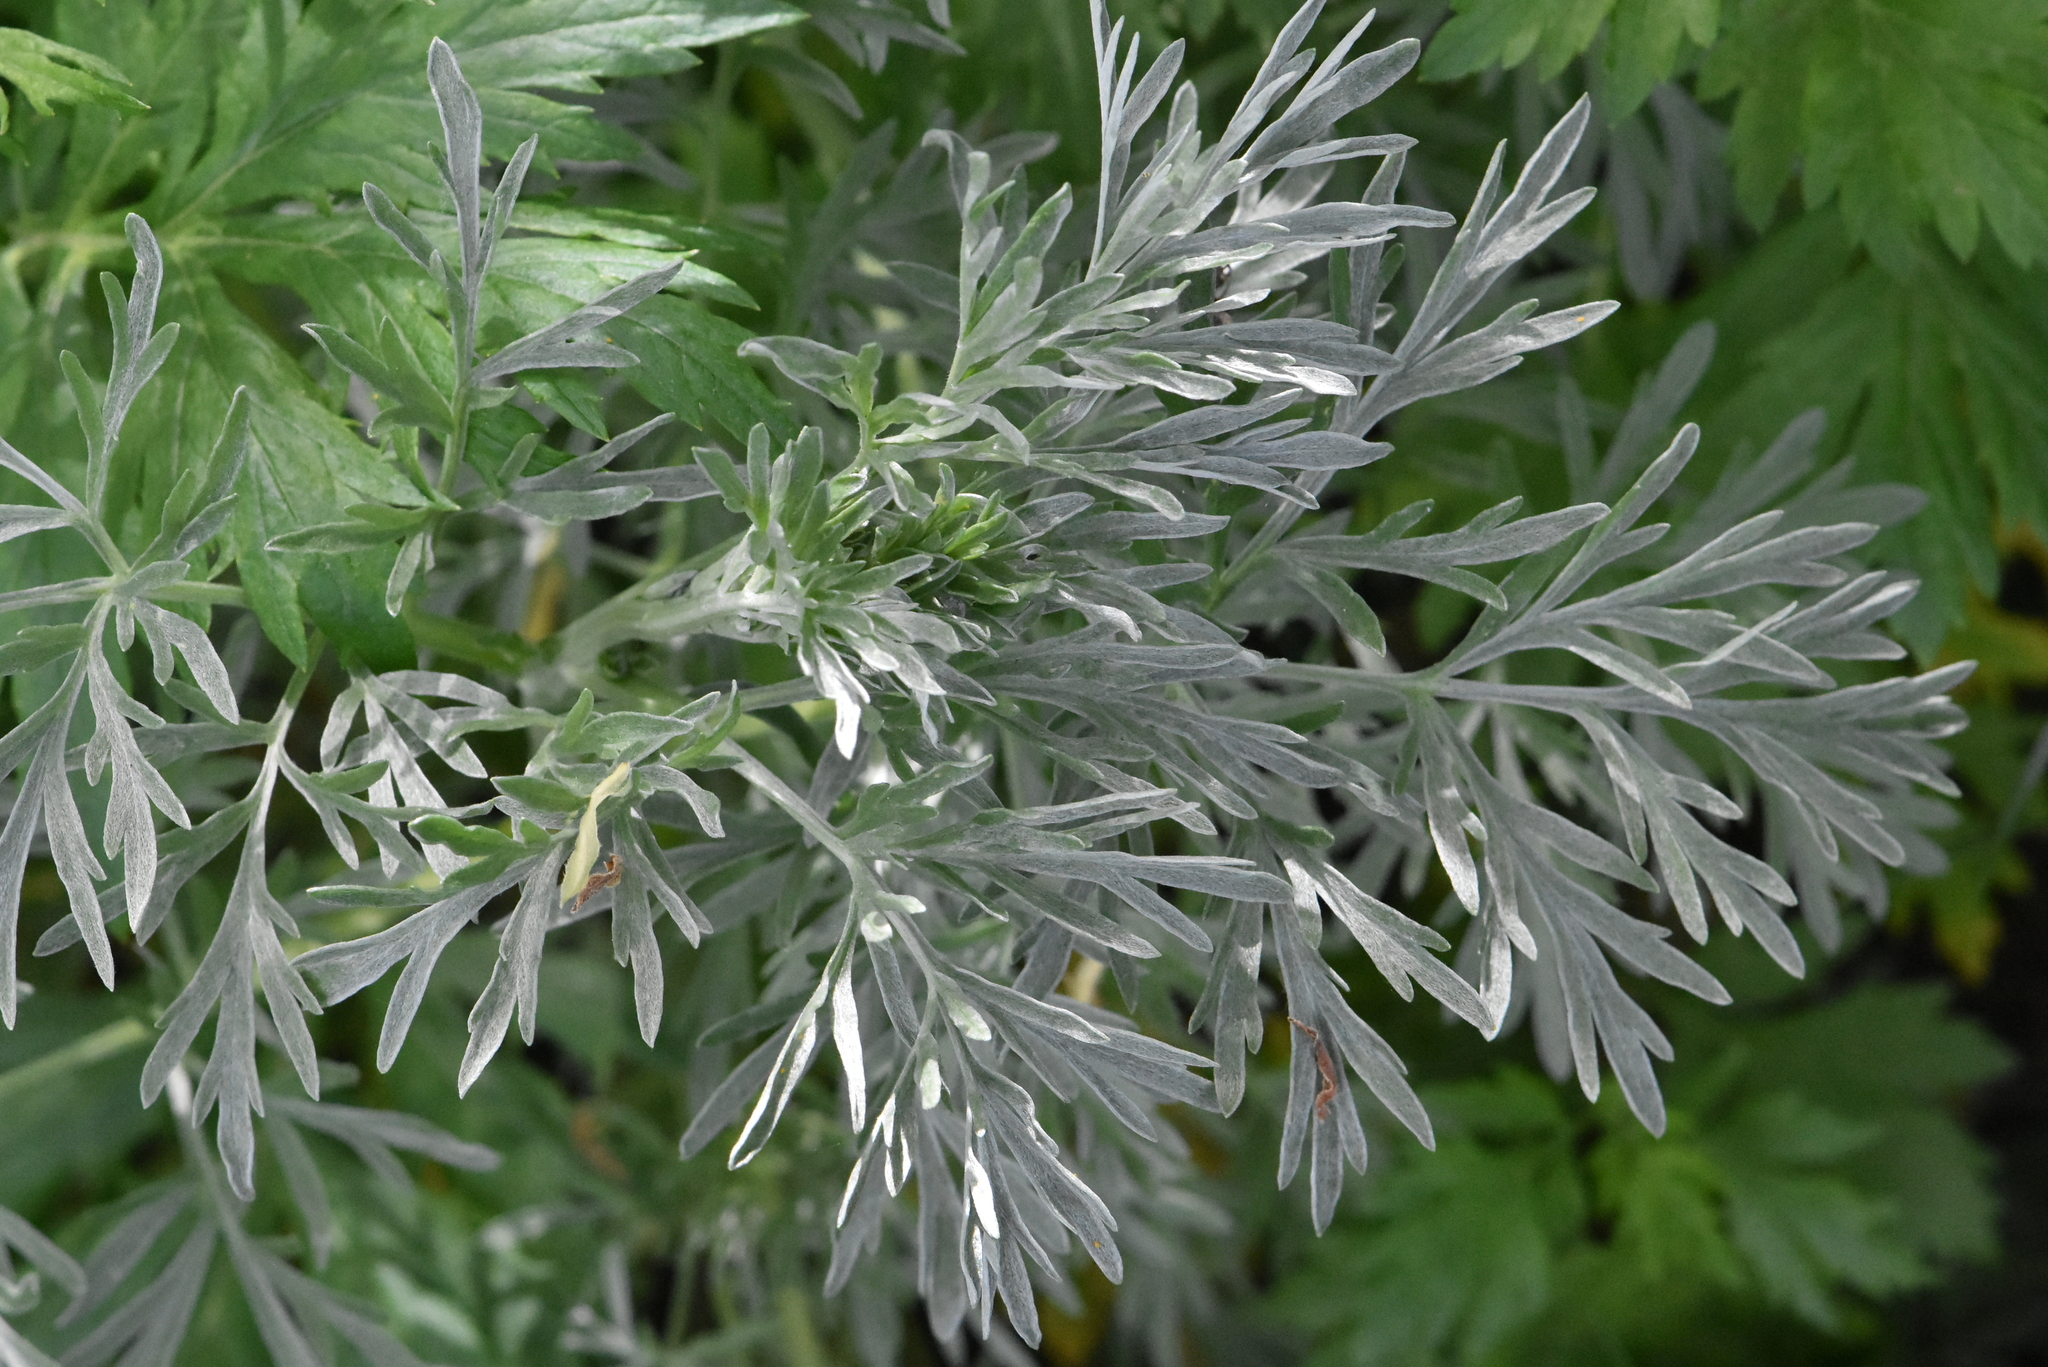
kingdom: Plantae
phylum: Tracheophyta
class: Magnoliopsida
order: Asterales
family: Asteraceae
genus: Artemisia
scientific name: Artemisia absinthium
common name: Wormwood
